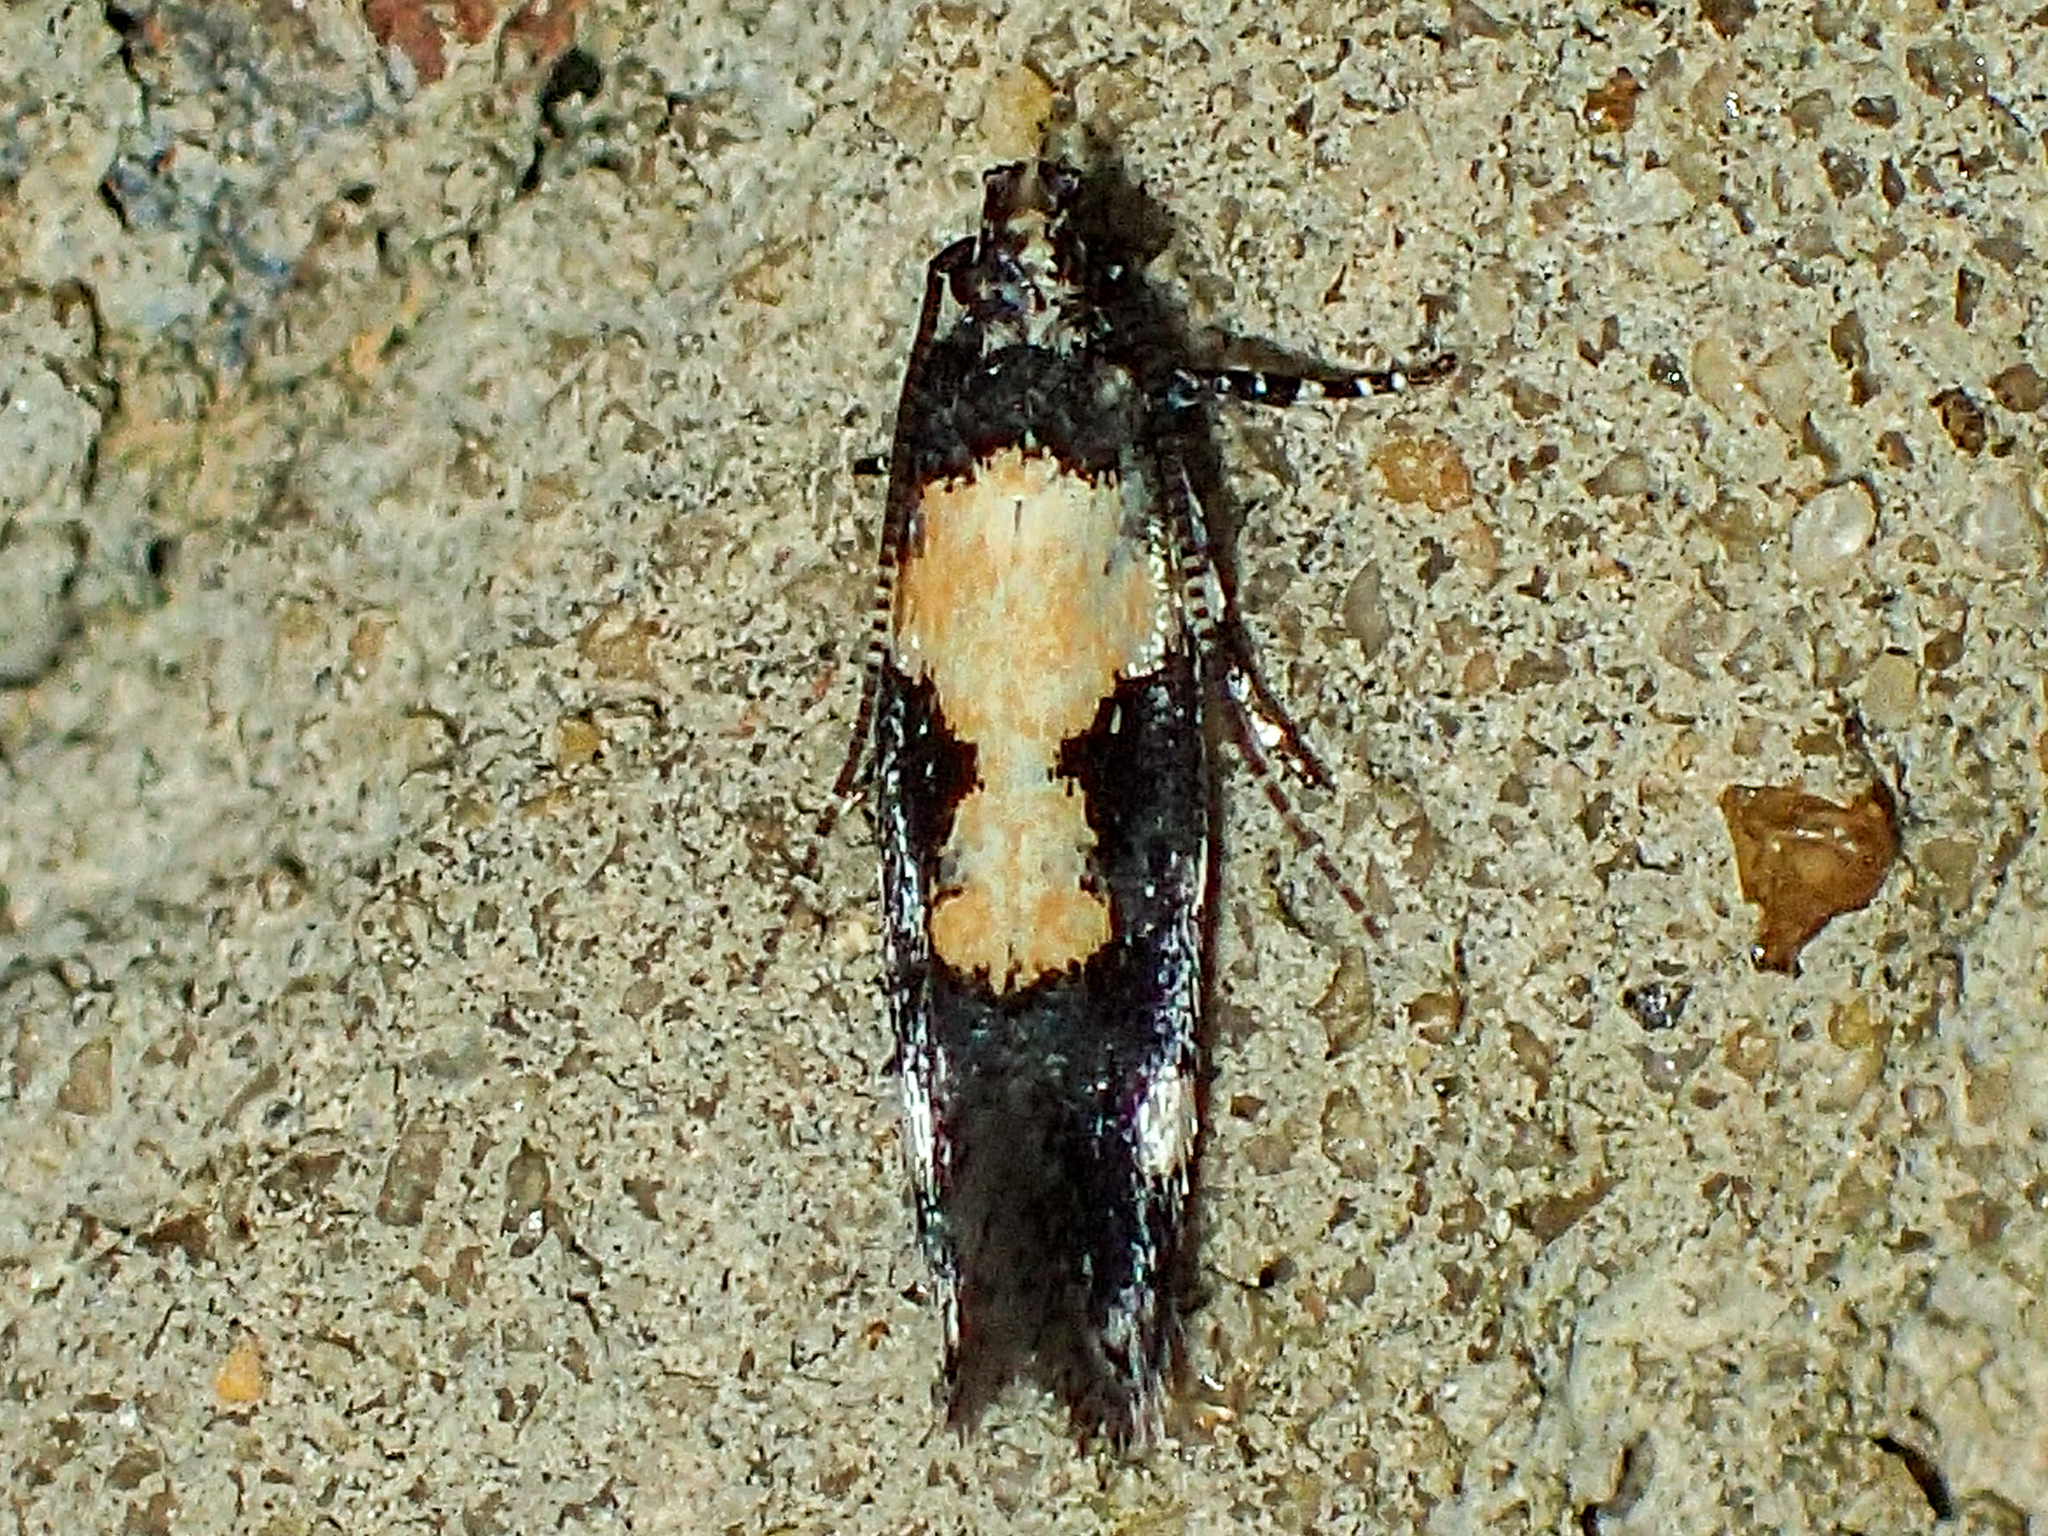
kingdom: Animalia
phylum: Arthropoda
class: Insecta
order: Lepidoptera
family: Gelechiidae
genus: Stegasta
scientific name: Stegasta bosqueella
